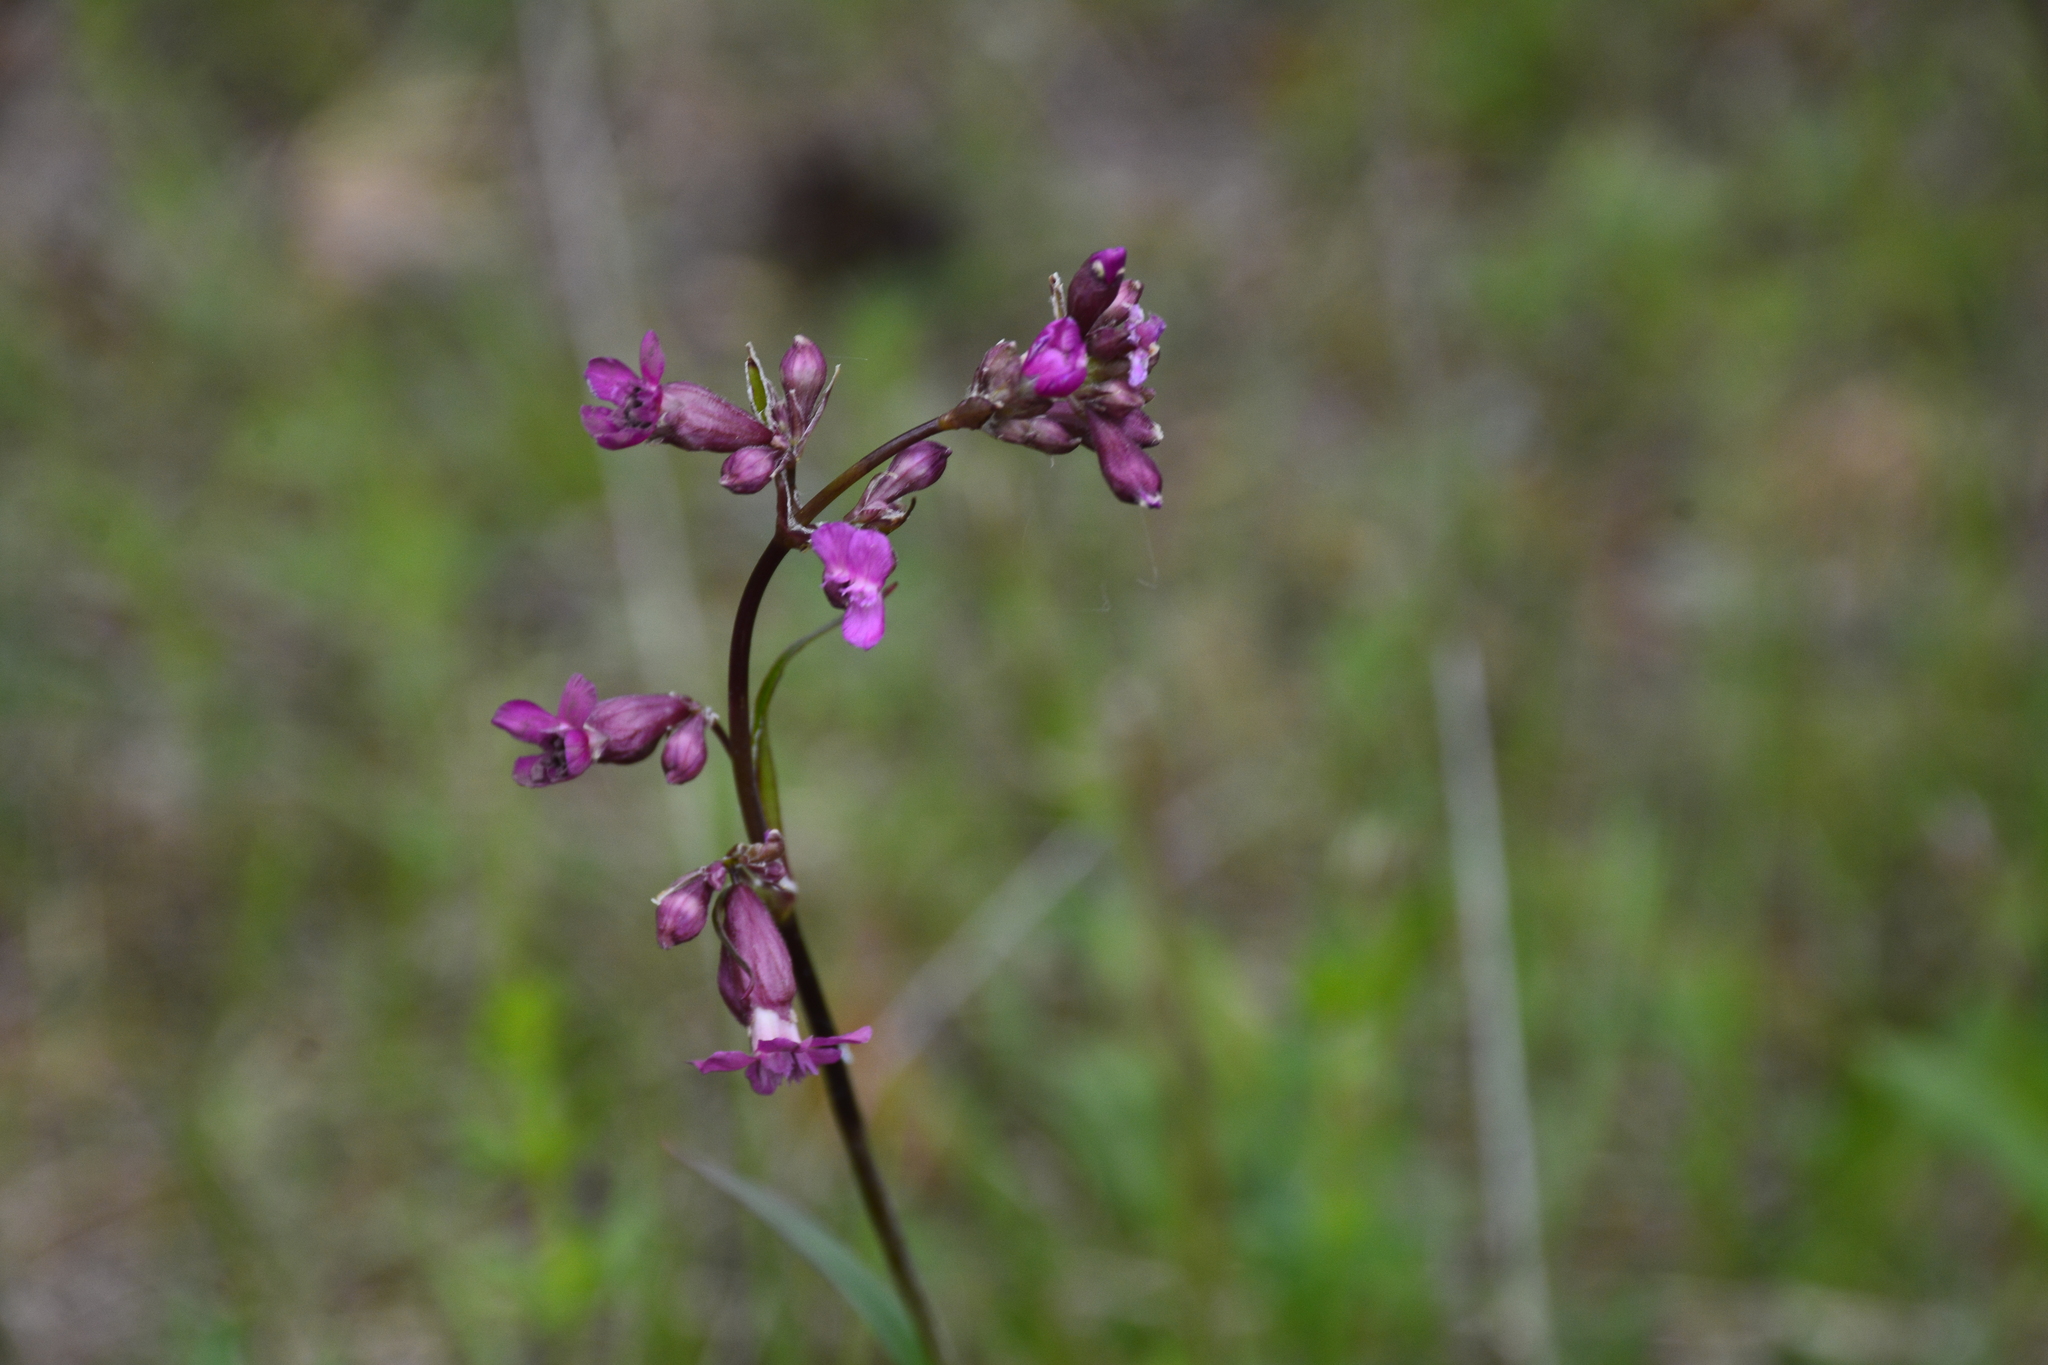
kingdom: Plantae
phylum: Tracheophyta
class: Magnoliopsida
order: Caryophyllales
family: Caryophyllaceae
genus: Viscaria
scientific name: Viscaria vulgaris
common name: Clammy campion
